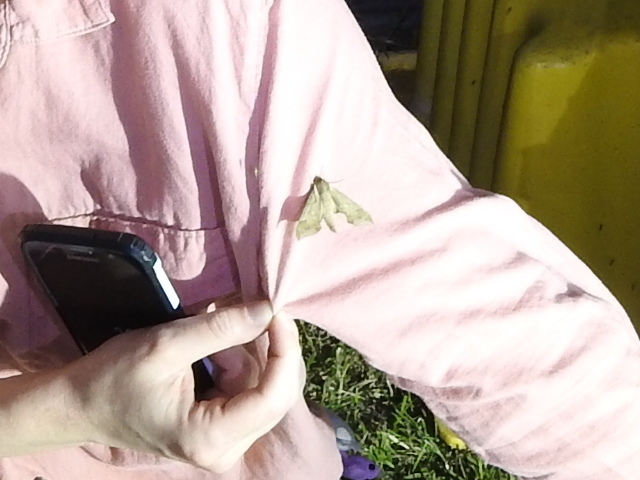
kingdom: Animalia
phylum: Arthropoda
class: Insecta
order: Lepidoptera
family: Sphingidae
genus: Darapsa
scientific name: Darapsa myron
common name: Hog sphinx
